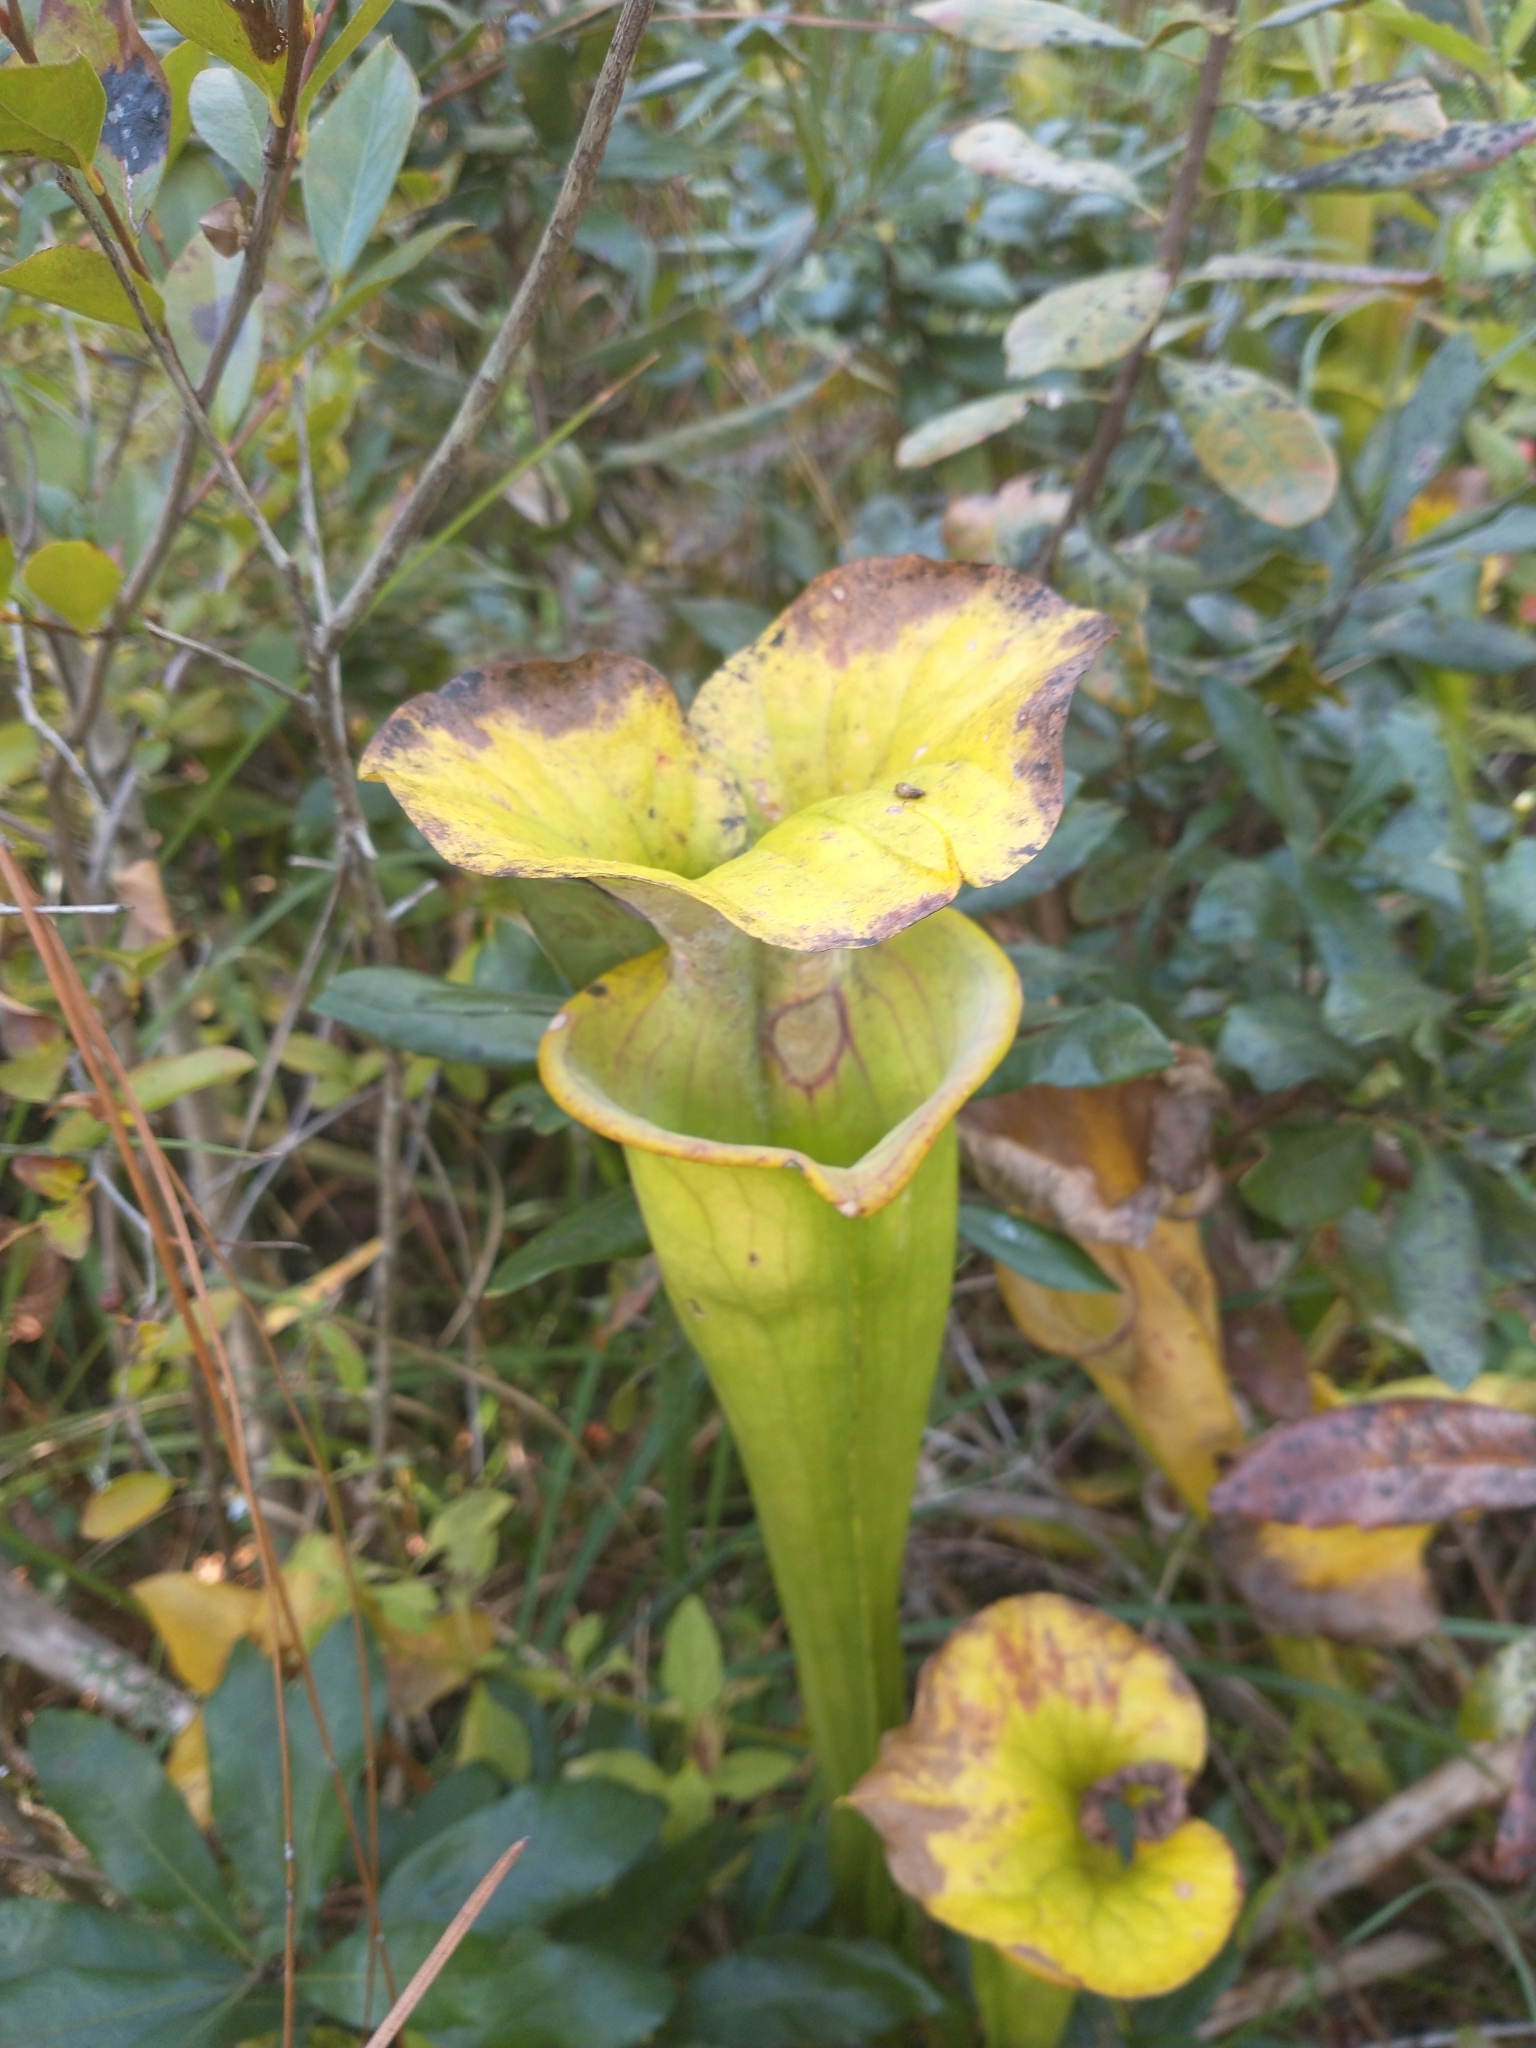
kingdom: Plantae
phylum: Tracheophyta
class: Magnoliopsida
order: Ericales
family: Sarraceniaceae
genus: Sarracenia
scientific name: Sarracenia flava
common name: Trumpets
